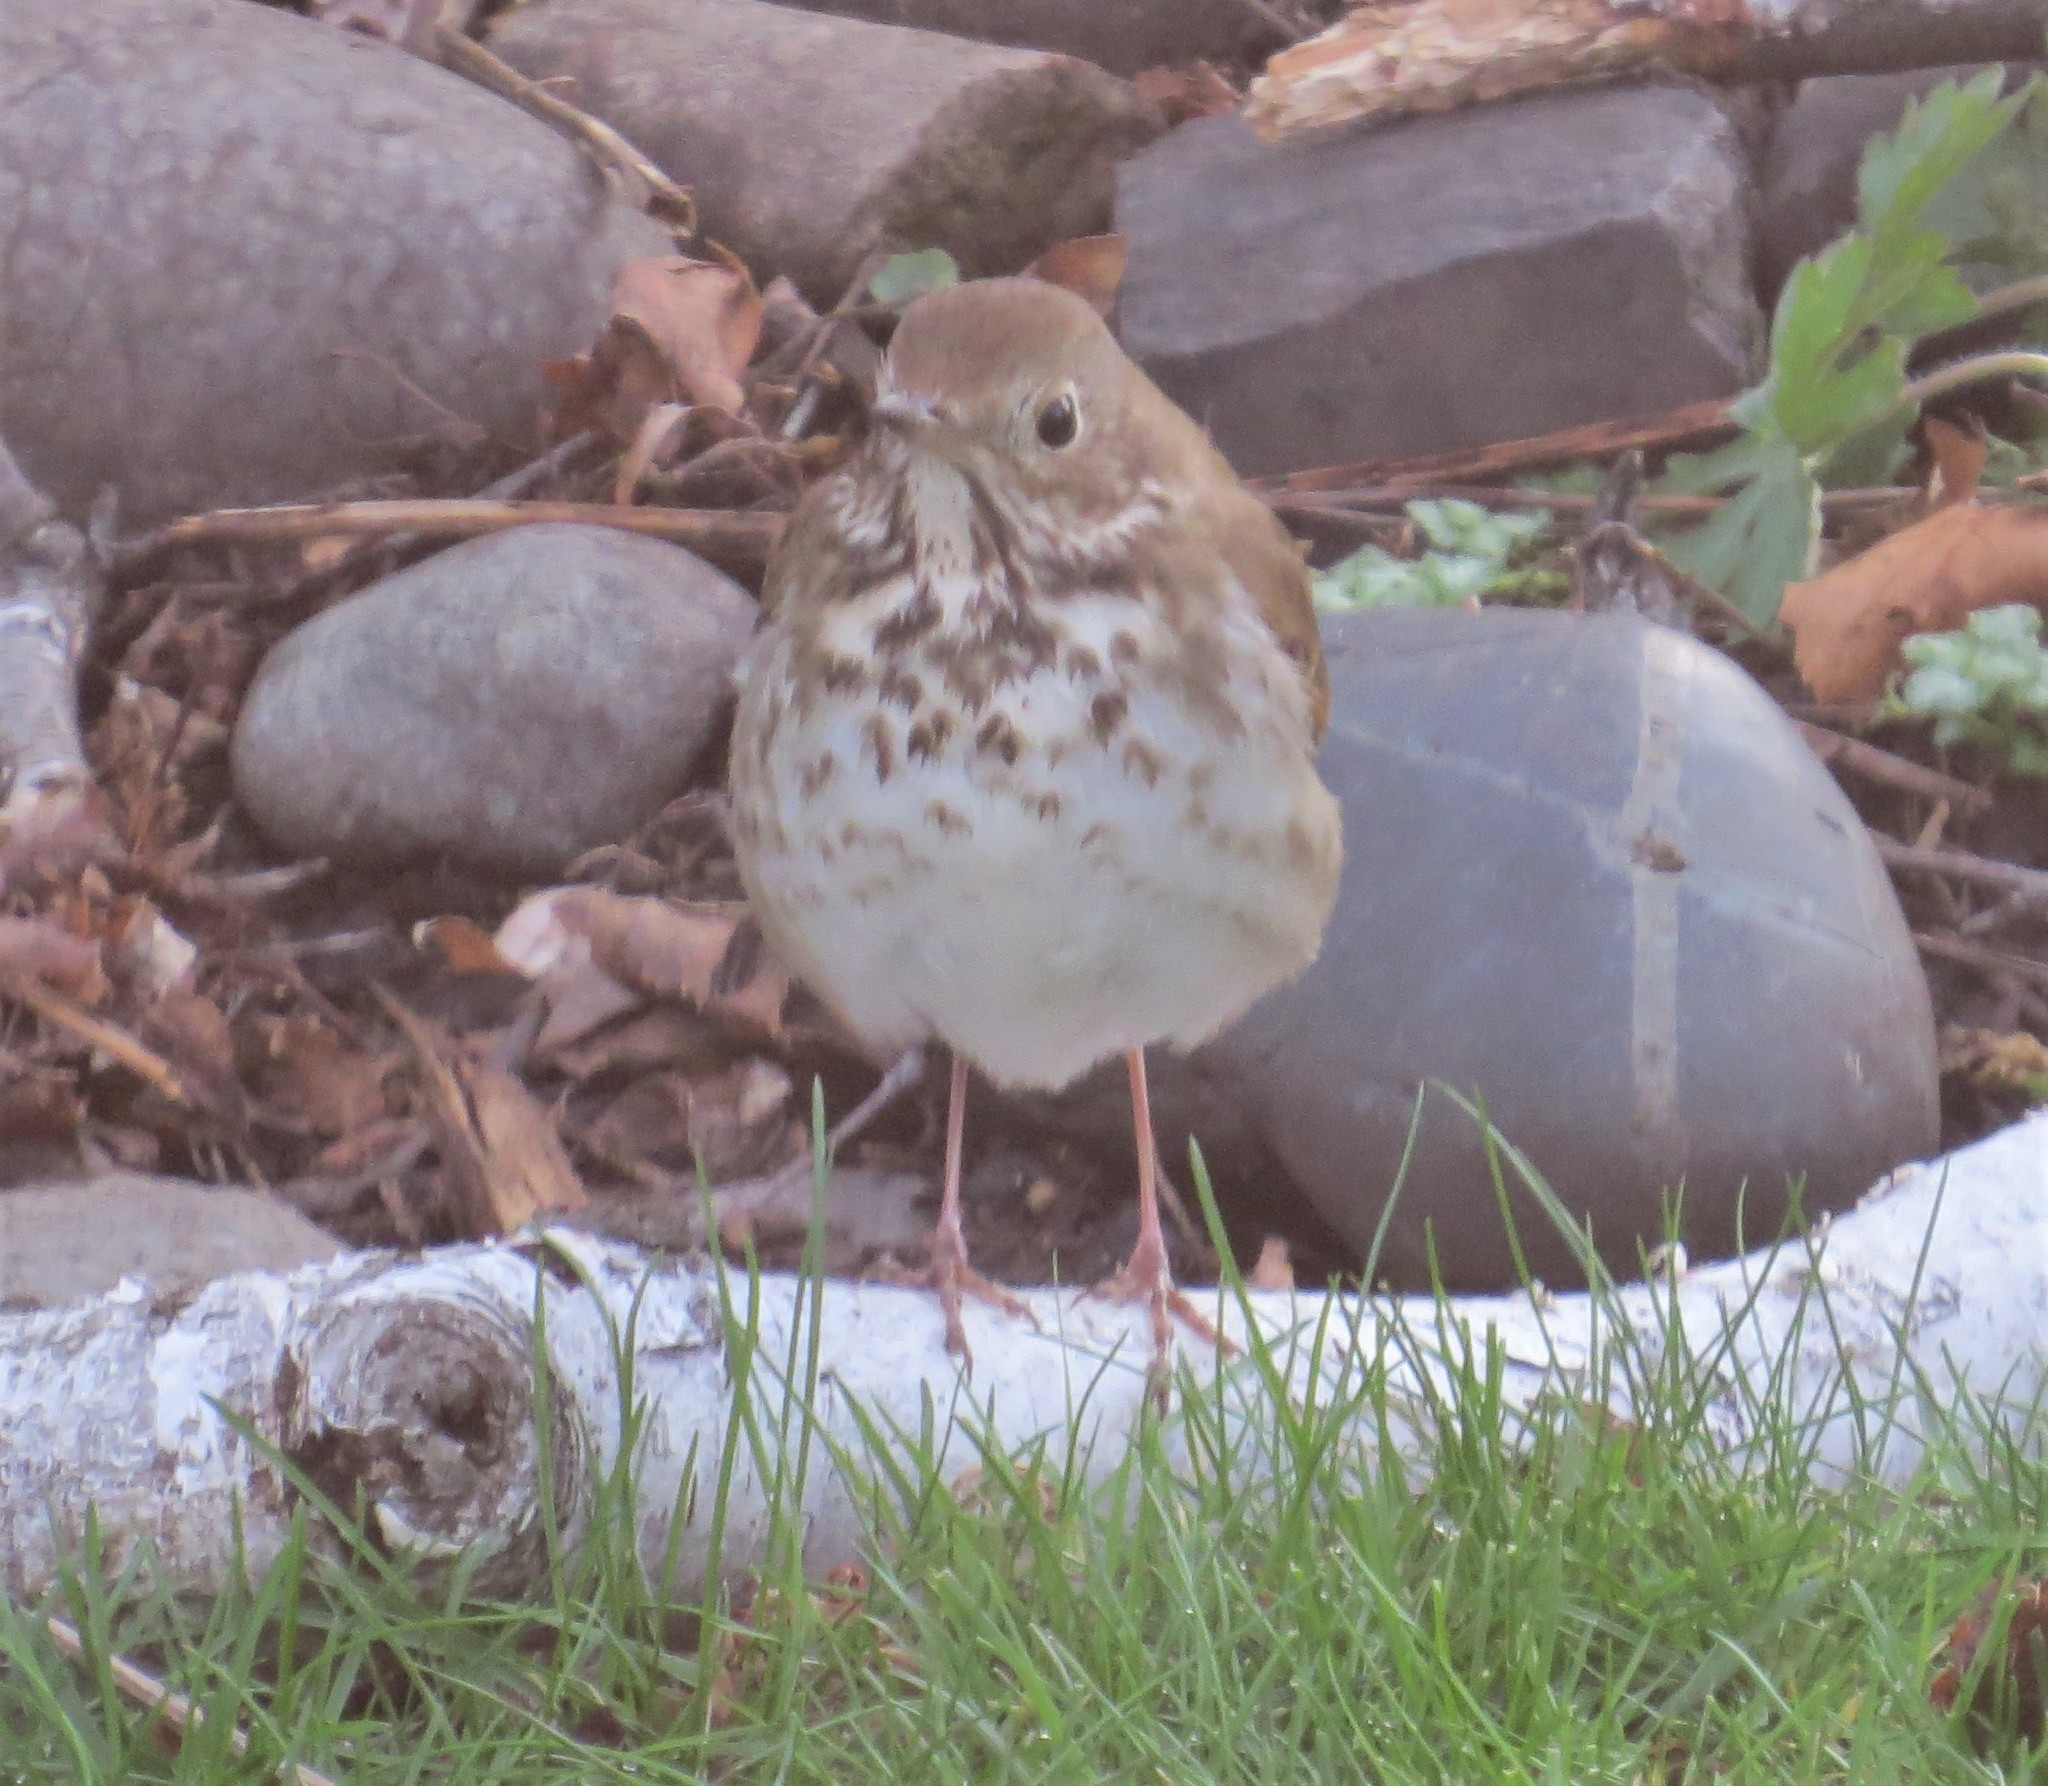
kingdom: Animalia
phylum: Chordata
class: Aves
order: Passeriformes
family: Turdidae
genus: Catharus
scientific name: Catharus guttatus
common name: Hermit thrush
